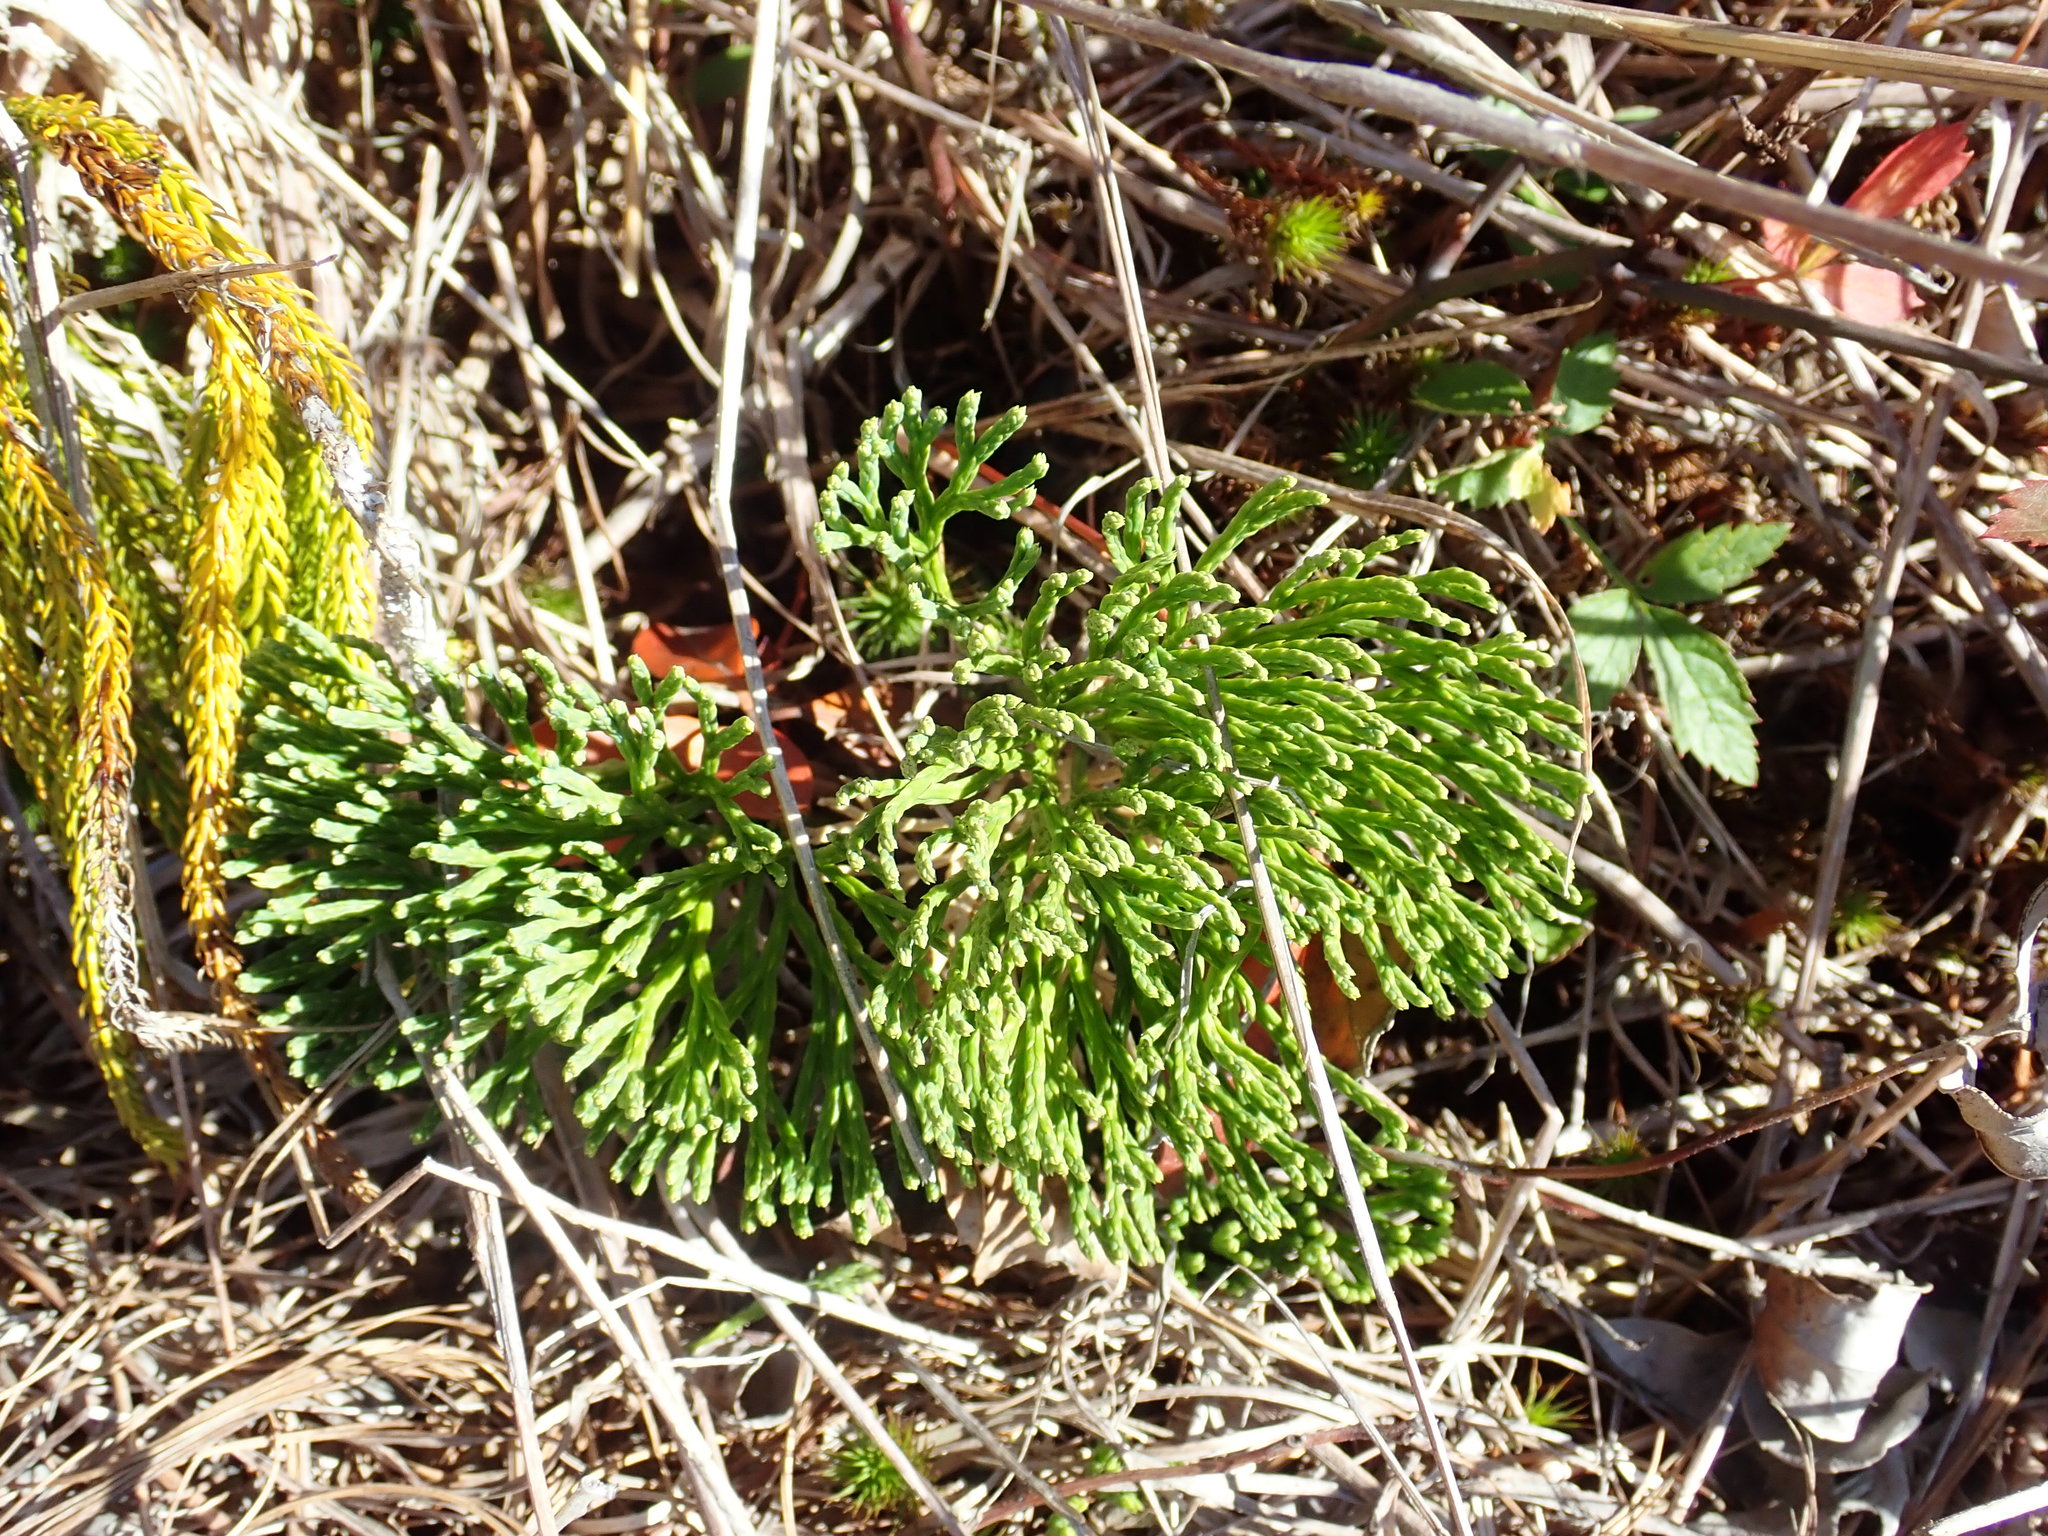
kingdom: Plantae
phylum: Tracheophyta
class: Lycopodiopsida
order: Lycopodiales
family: Lycopodiaceae
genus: Diphasiastrum
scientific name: Diphasiastrum tristachyum
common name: Blue ground-cedar
